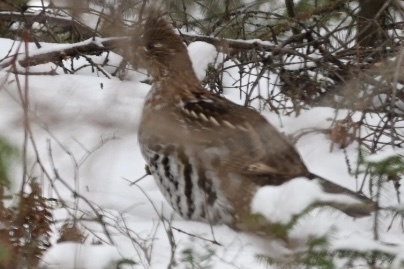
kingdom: Animalia
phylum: Chordata
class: Aves
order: Galliformes
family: Phasianidae
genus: Bonasa
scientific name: Bonasa umbellus
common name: Ruffed grouse
